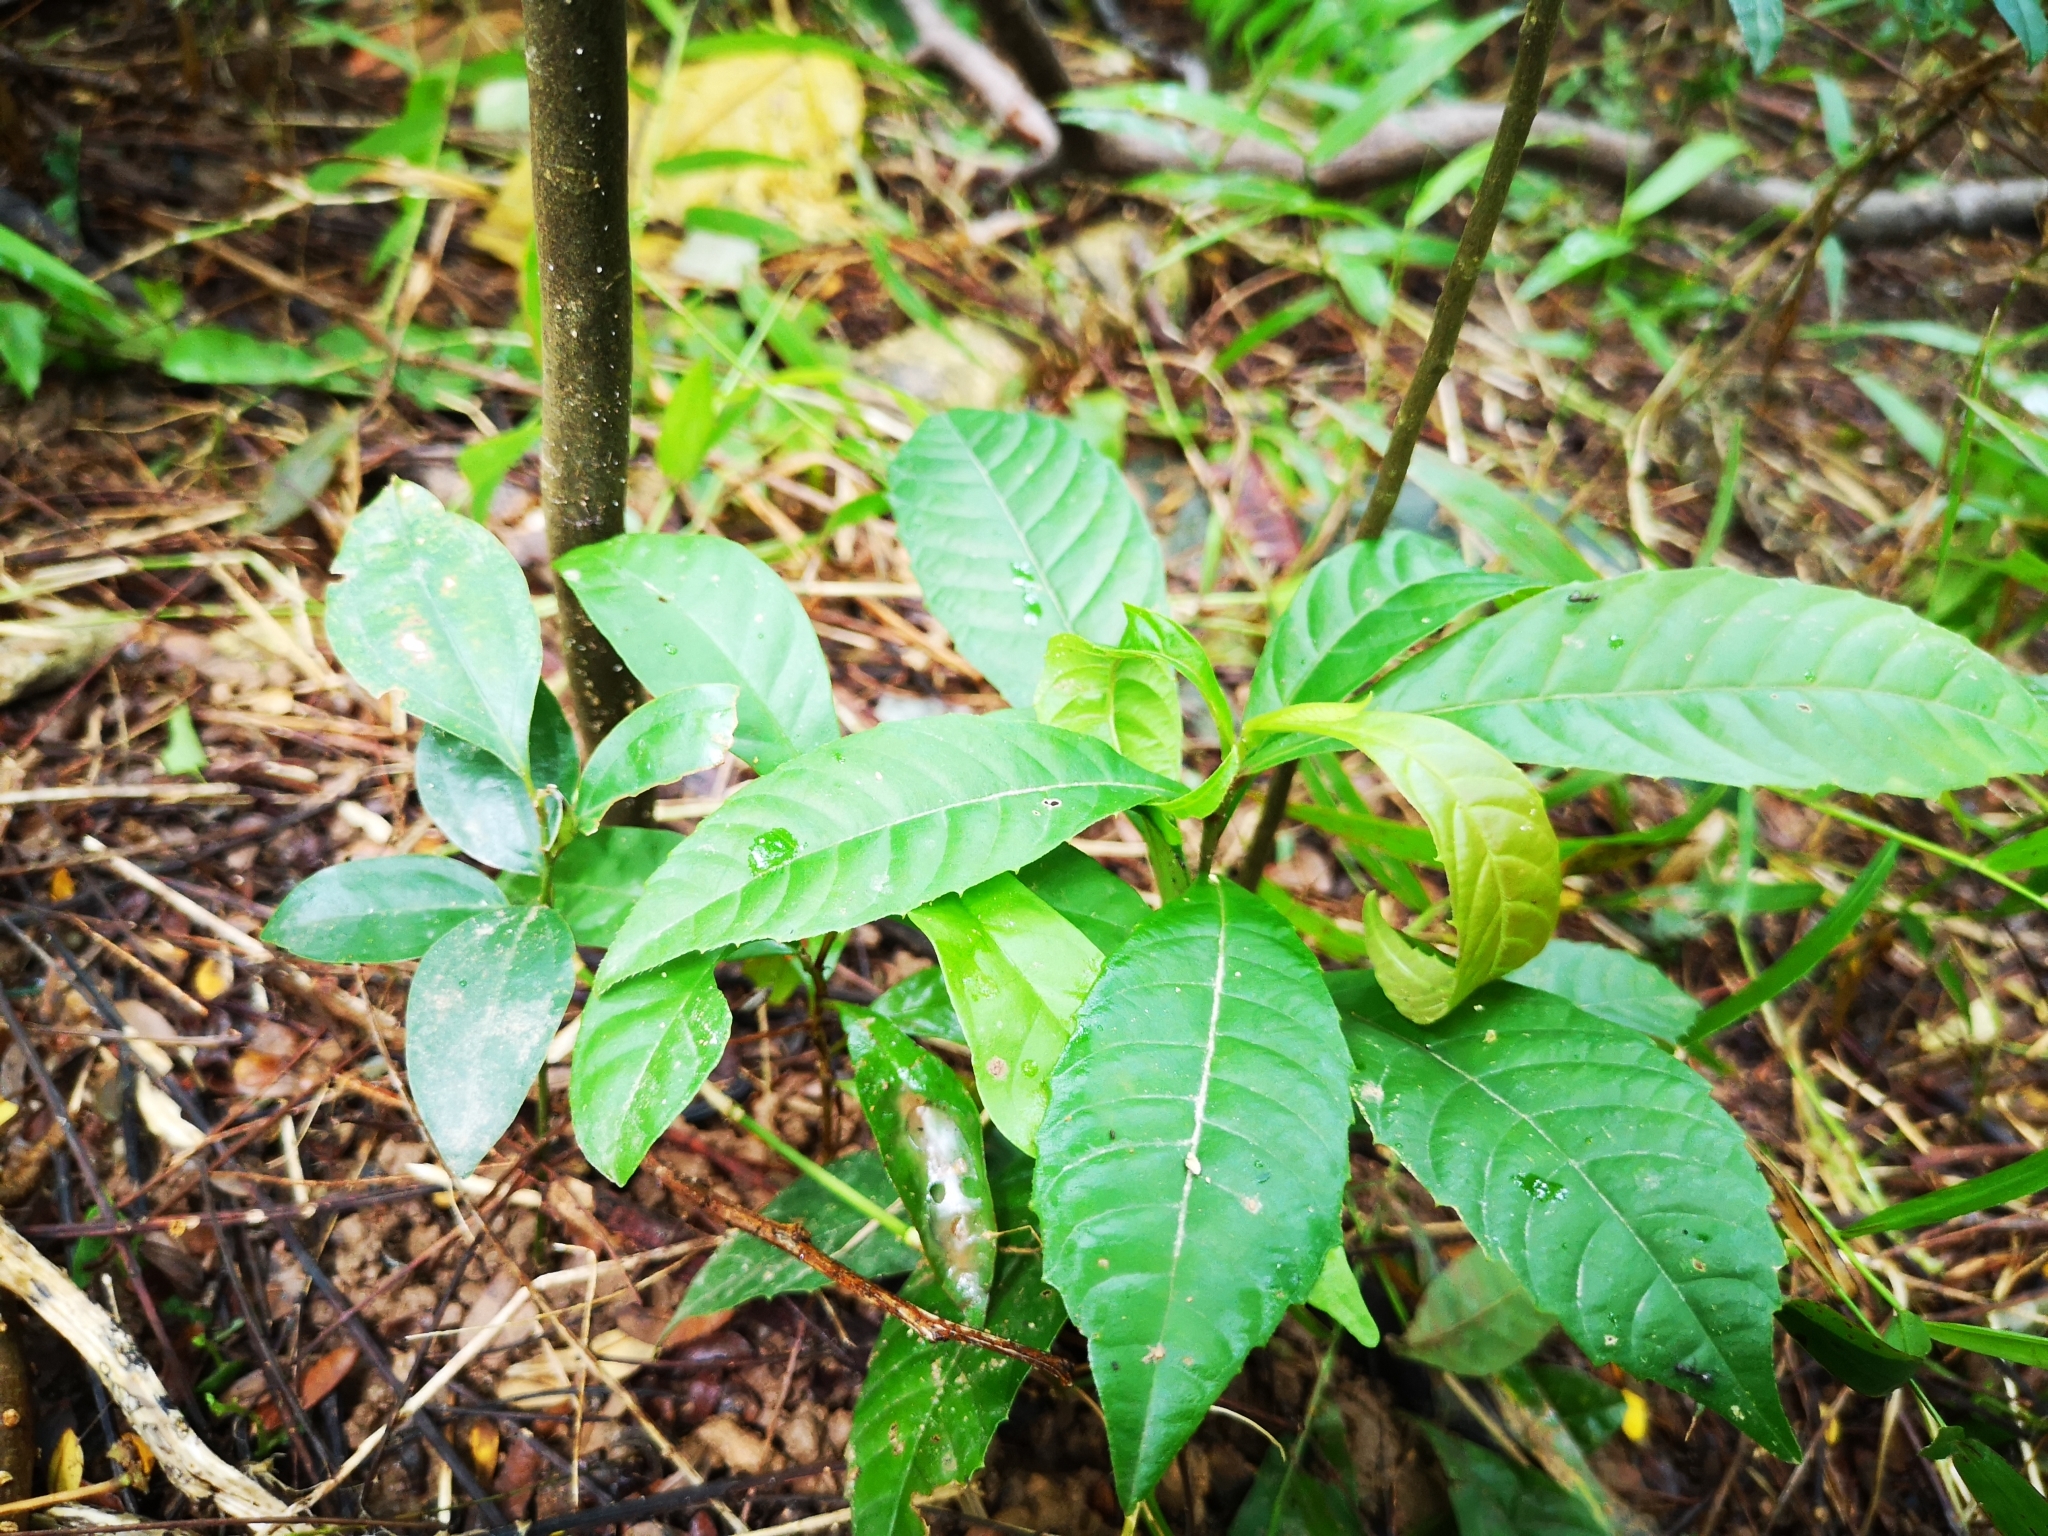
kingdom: Plantae
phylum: Tracheophyta
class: Magnoliopsida
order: Dilleniales
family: Dilleniaceae
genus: Tetracera
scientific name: Tetracera indica
